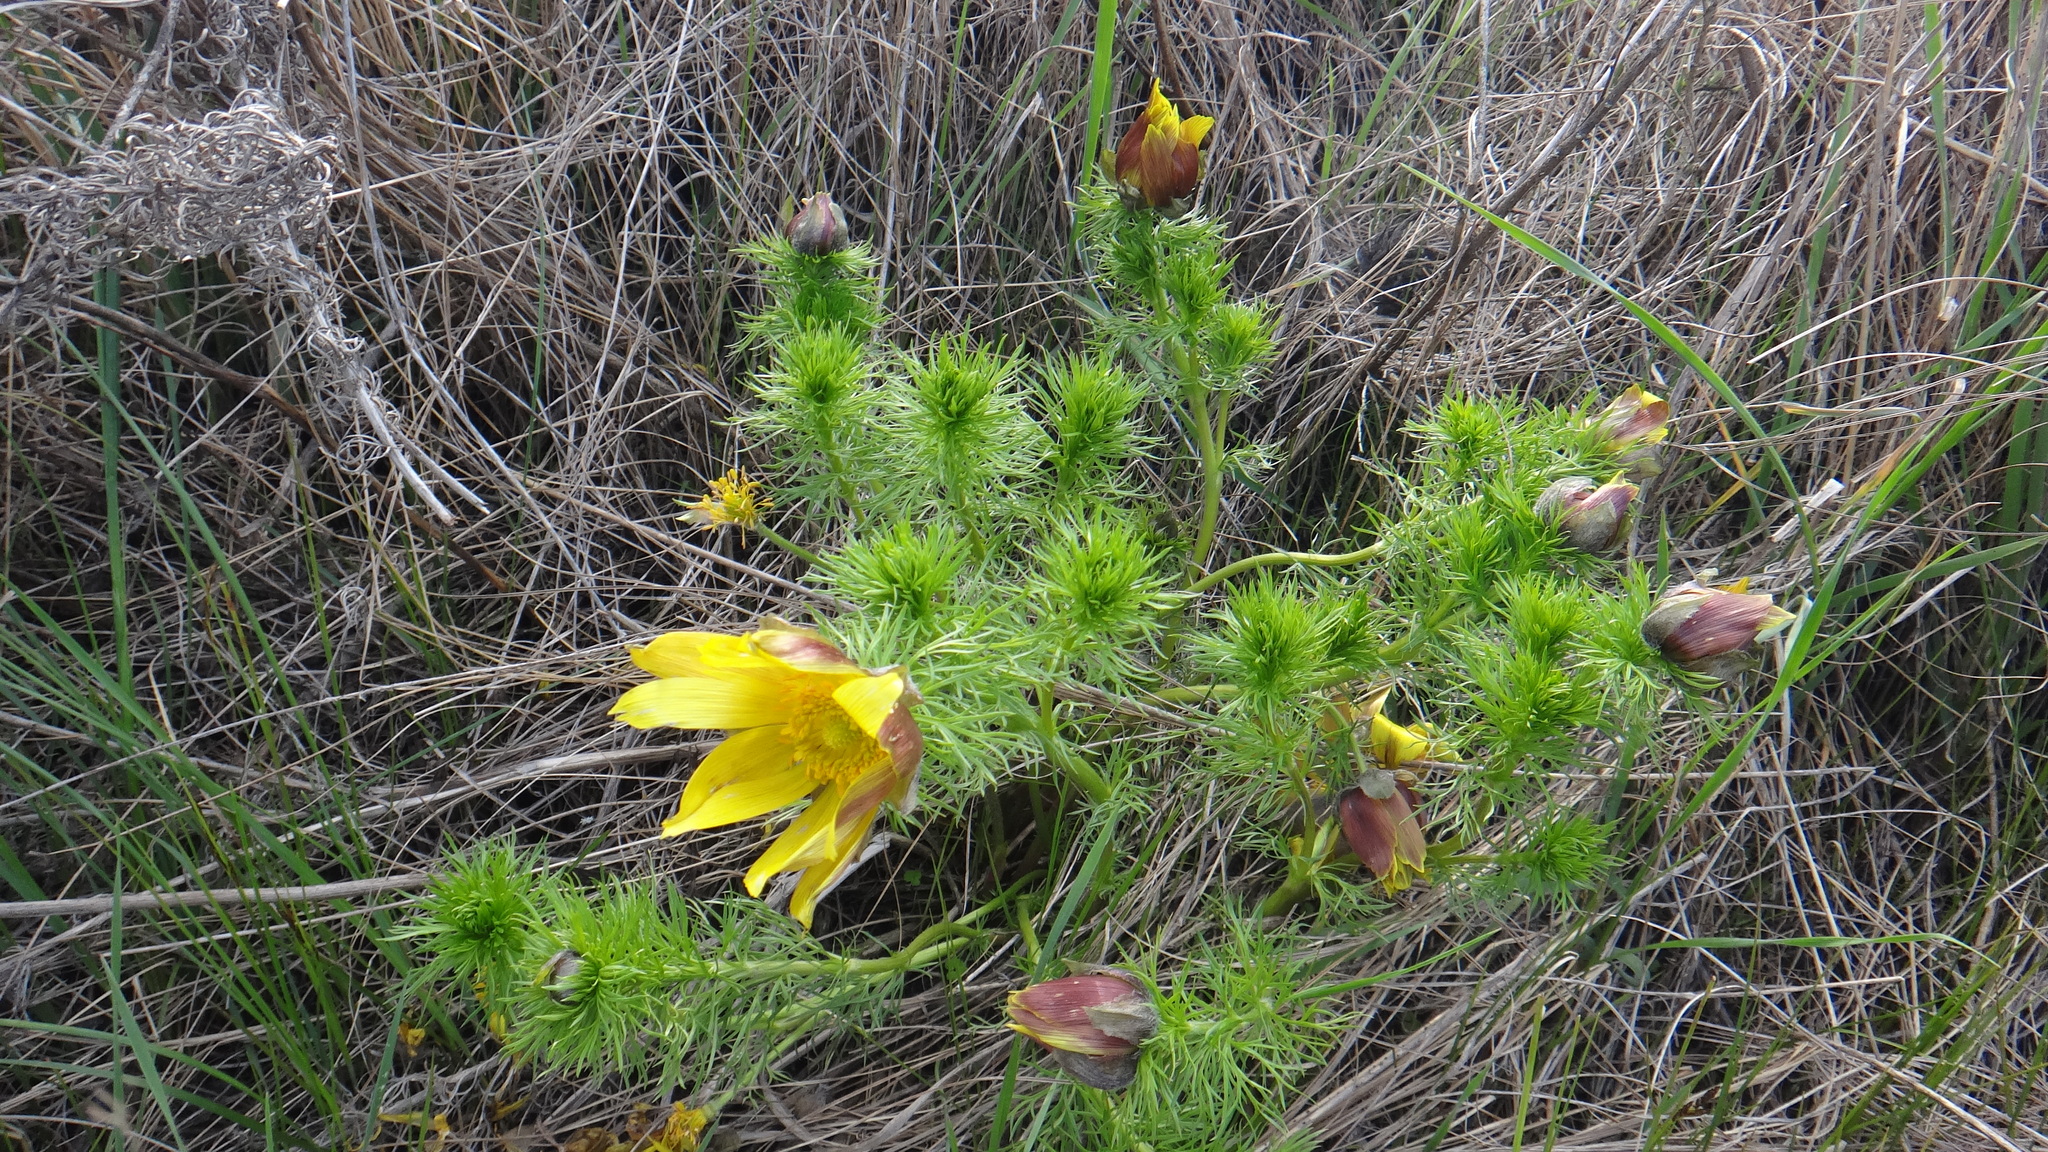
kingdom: Plantae
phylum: Tracheophyta
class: Magnoliopsida
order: Ranunculales
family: Ranunculaceae
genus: Adonis
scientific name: Adonis vernalis
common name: Yellow pheasants-eye
